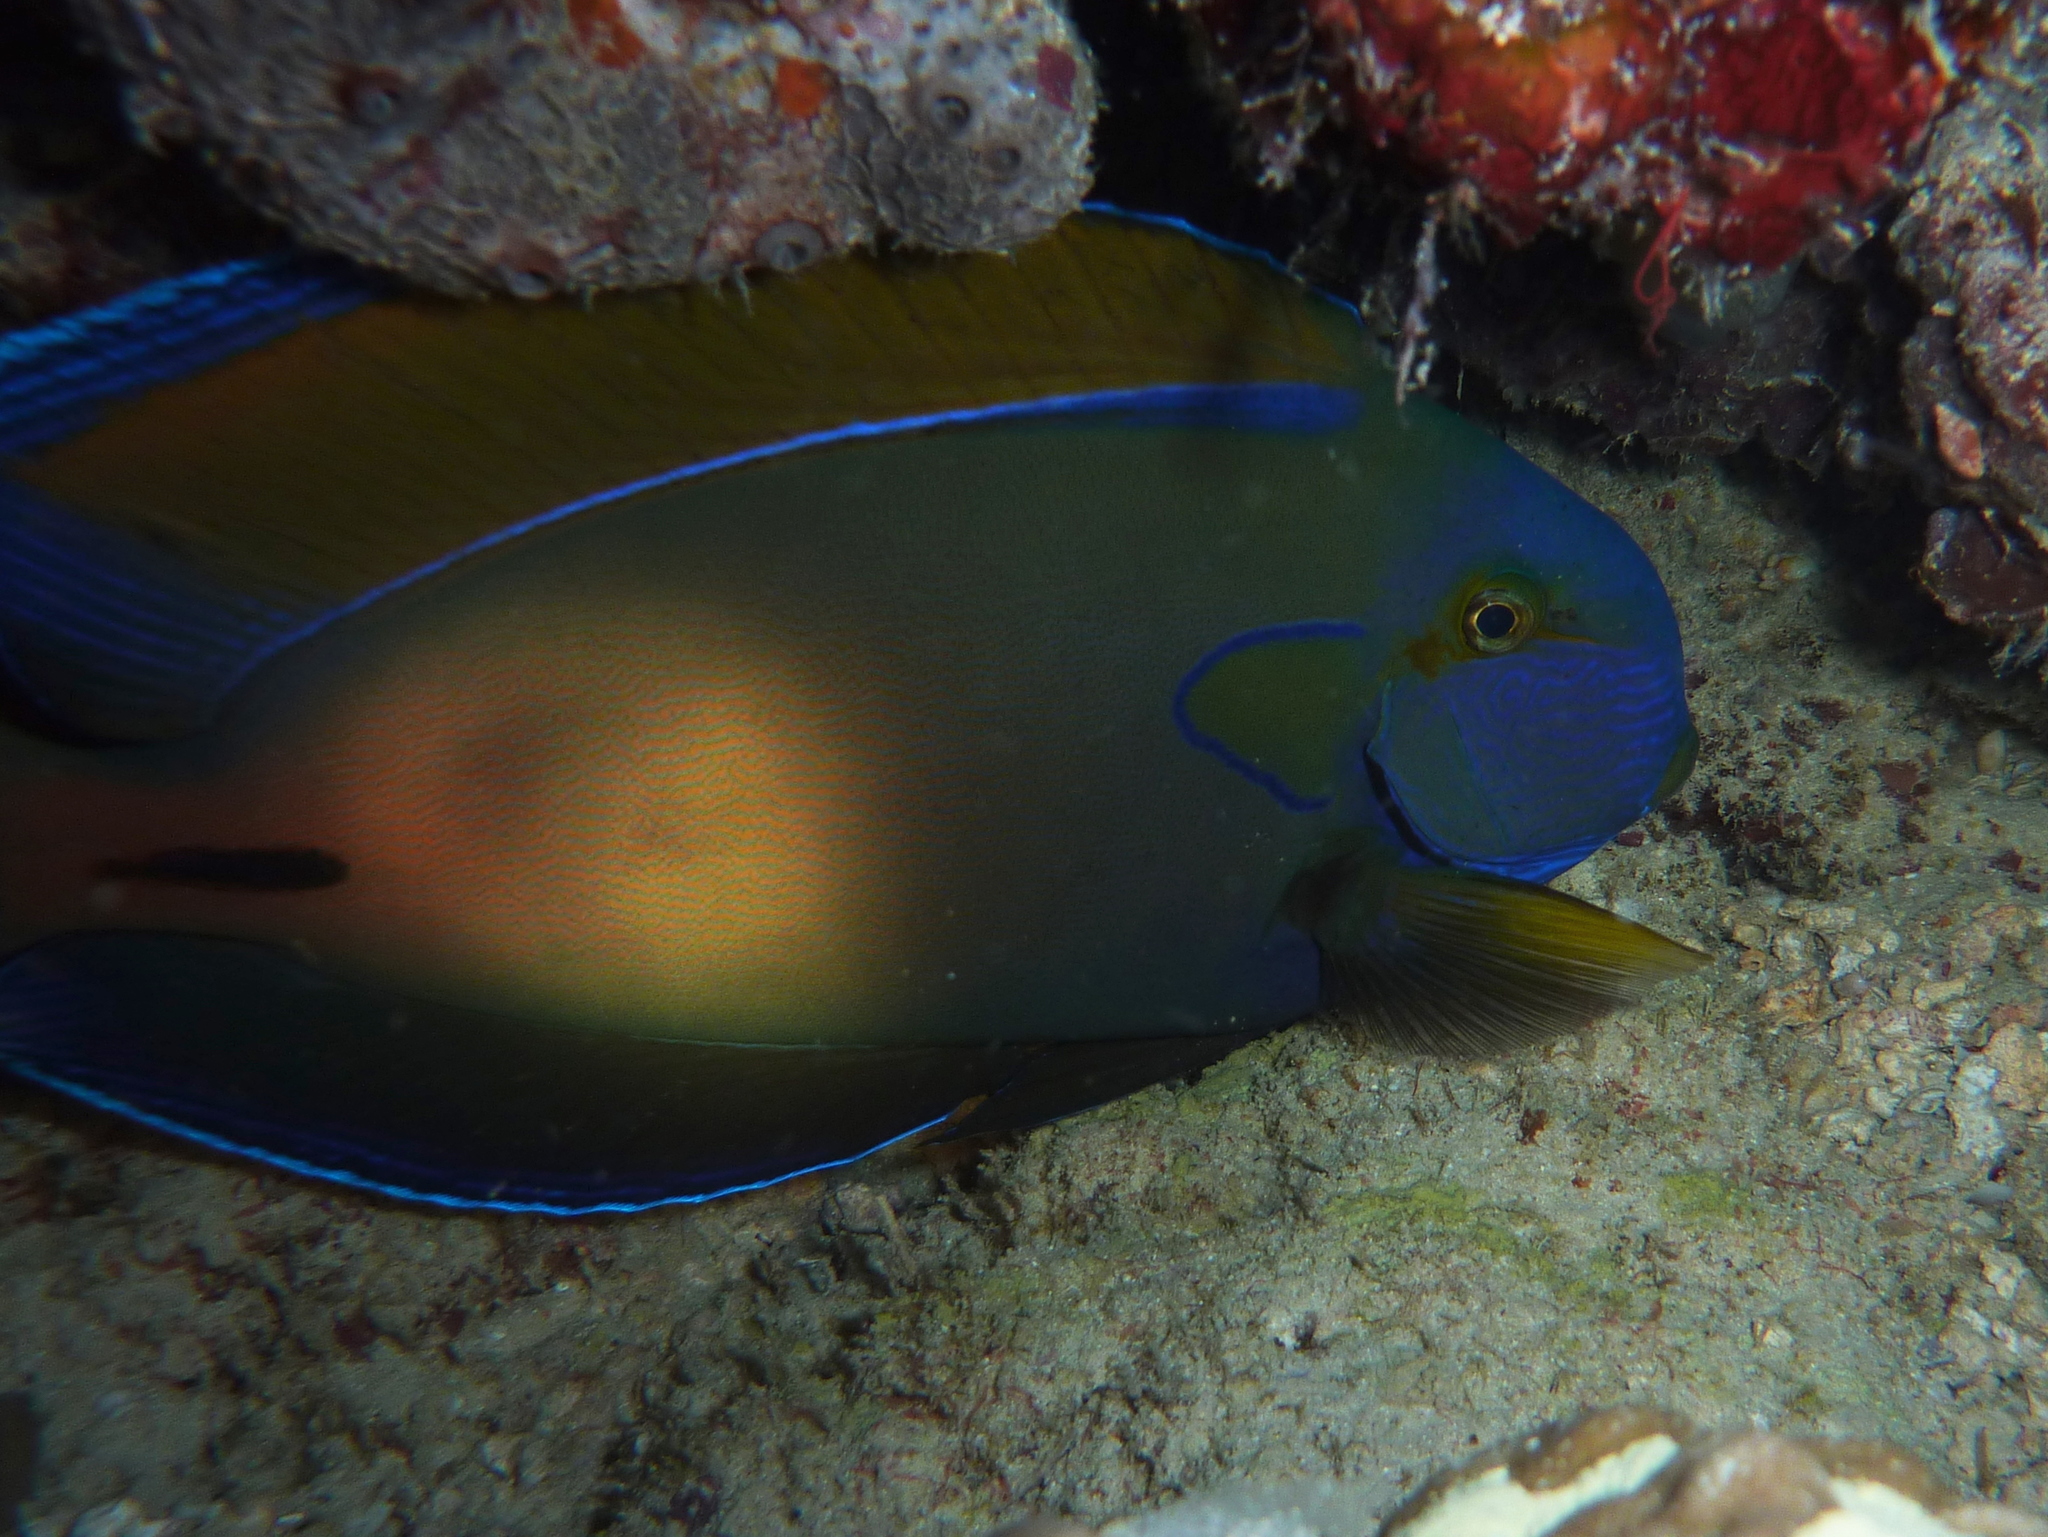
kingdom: Animalia
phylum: Chordata
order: Perciformes
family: Acanthuridae
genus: Acanthurus
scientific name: Acanthurus fowleri
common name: Fowler's surgeonfish
